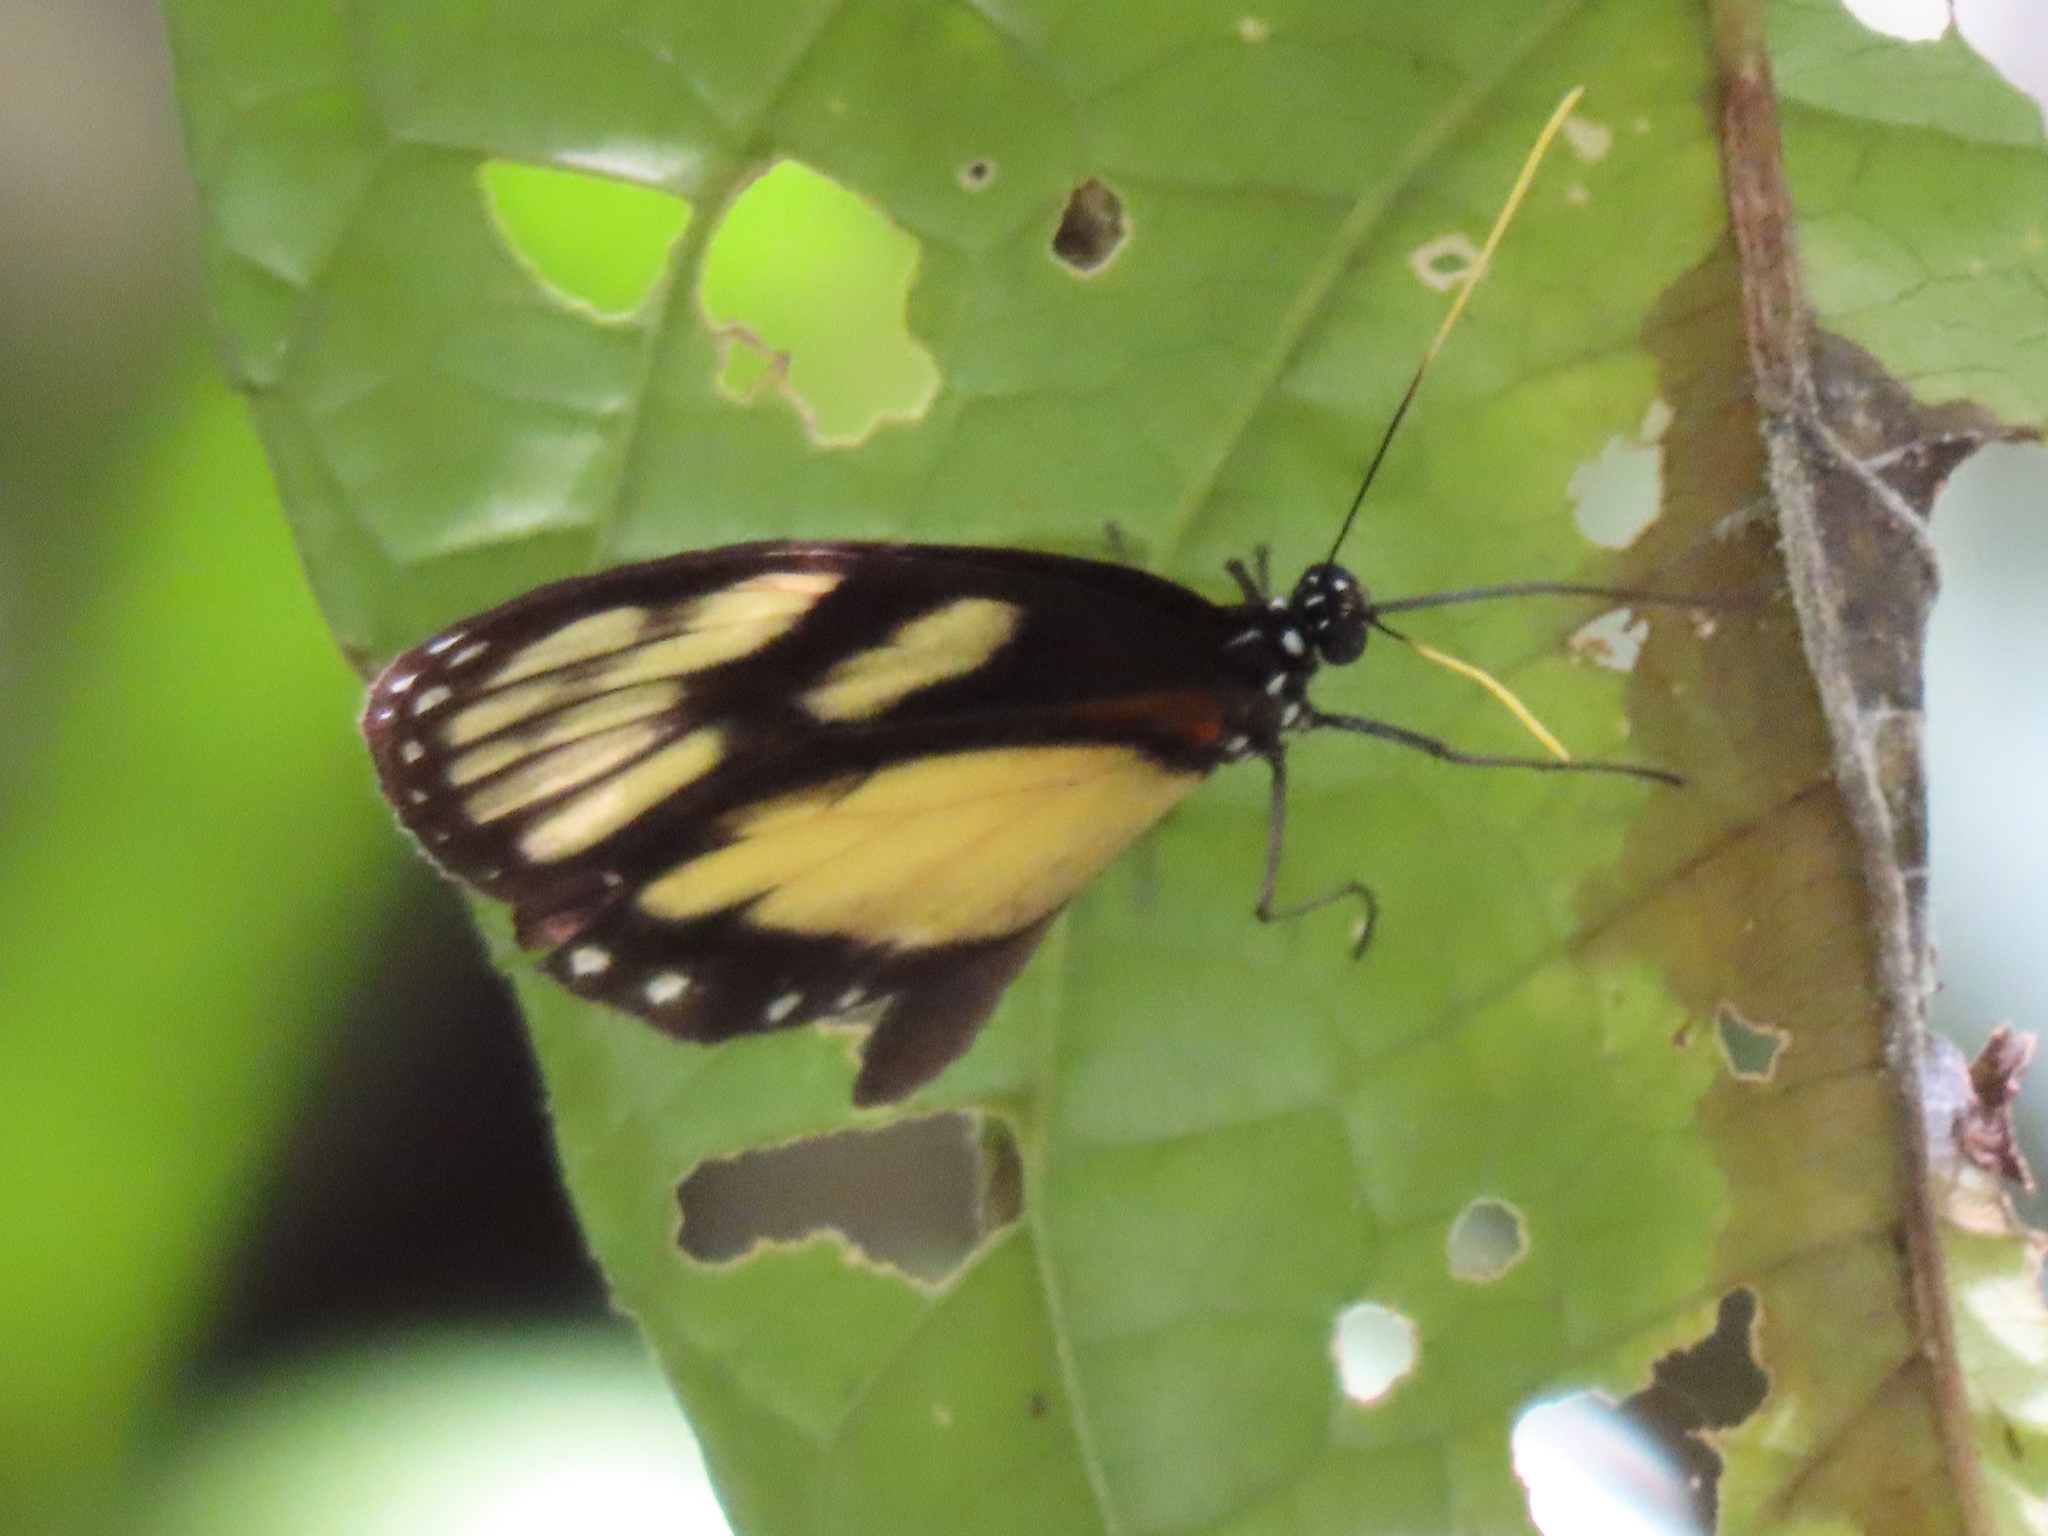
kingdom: Animalia
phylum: Arthropoda
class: Insecta
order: Lepidoptera
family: Nymphalidae
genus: Godyris
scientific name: Godyris zavaleta
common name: Zavaleta glasswing
